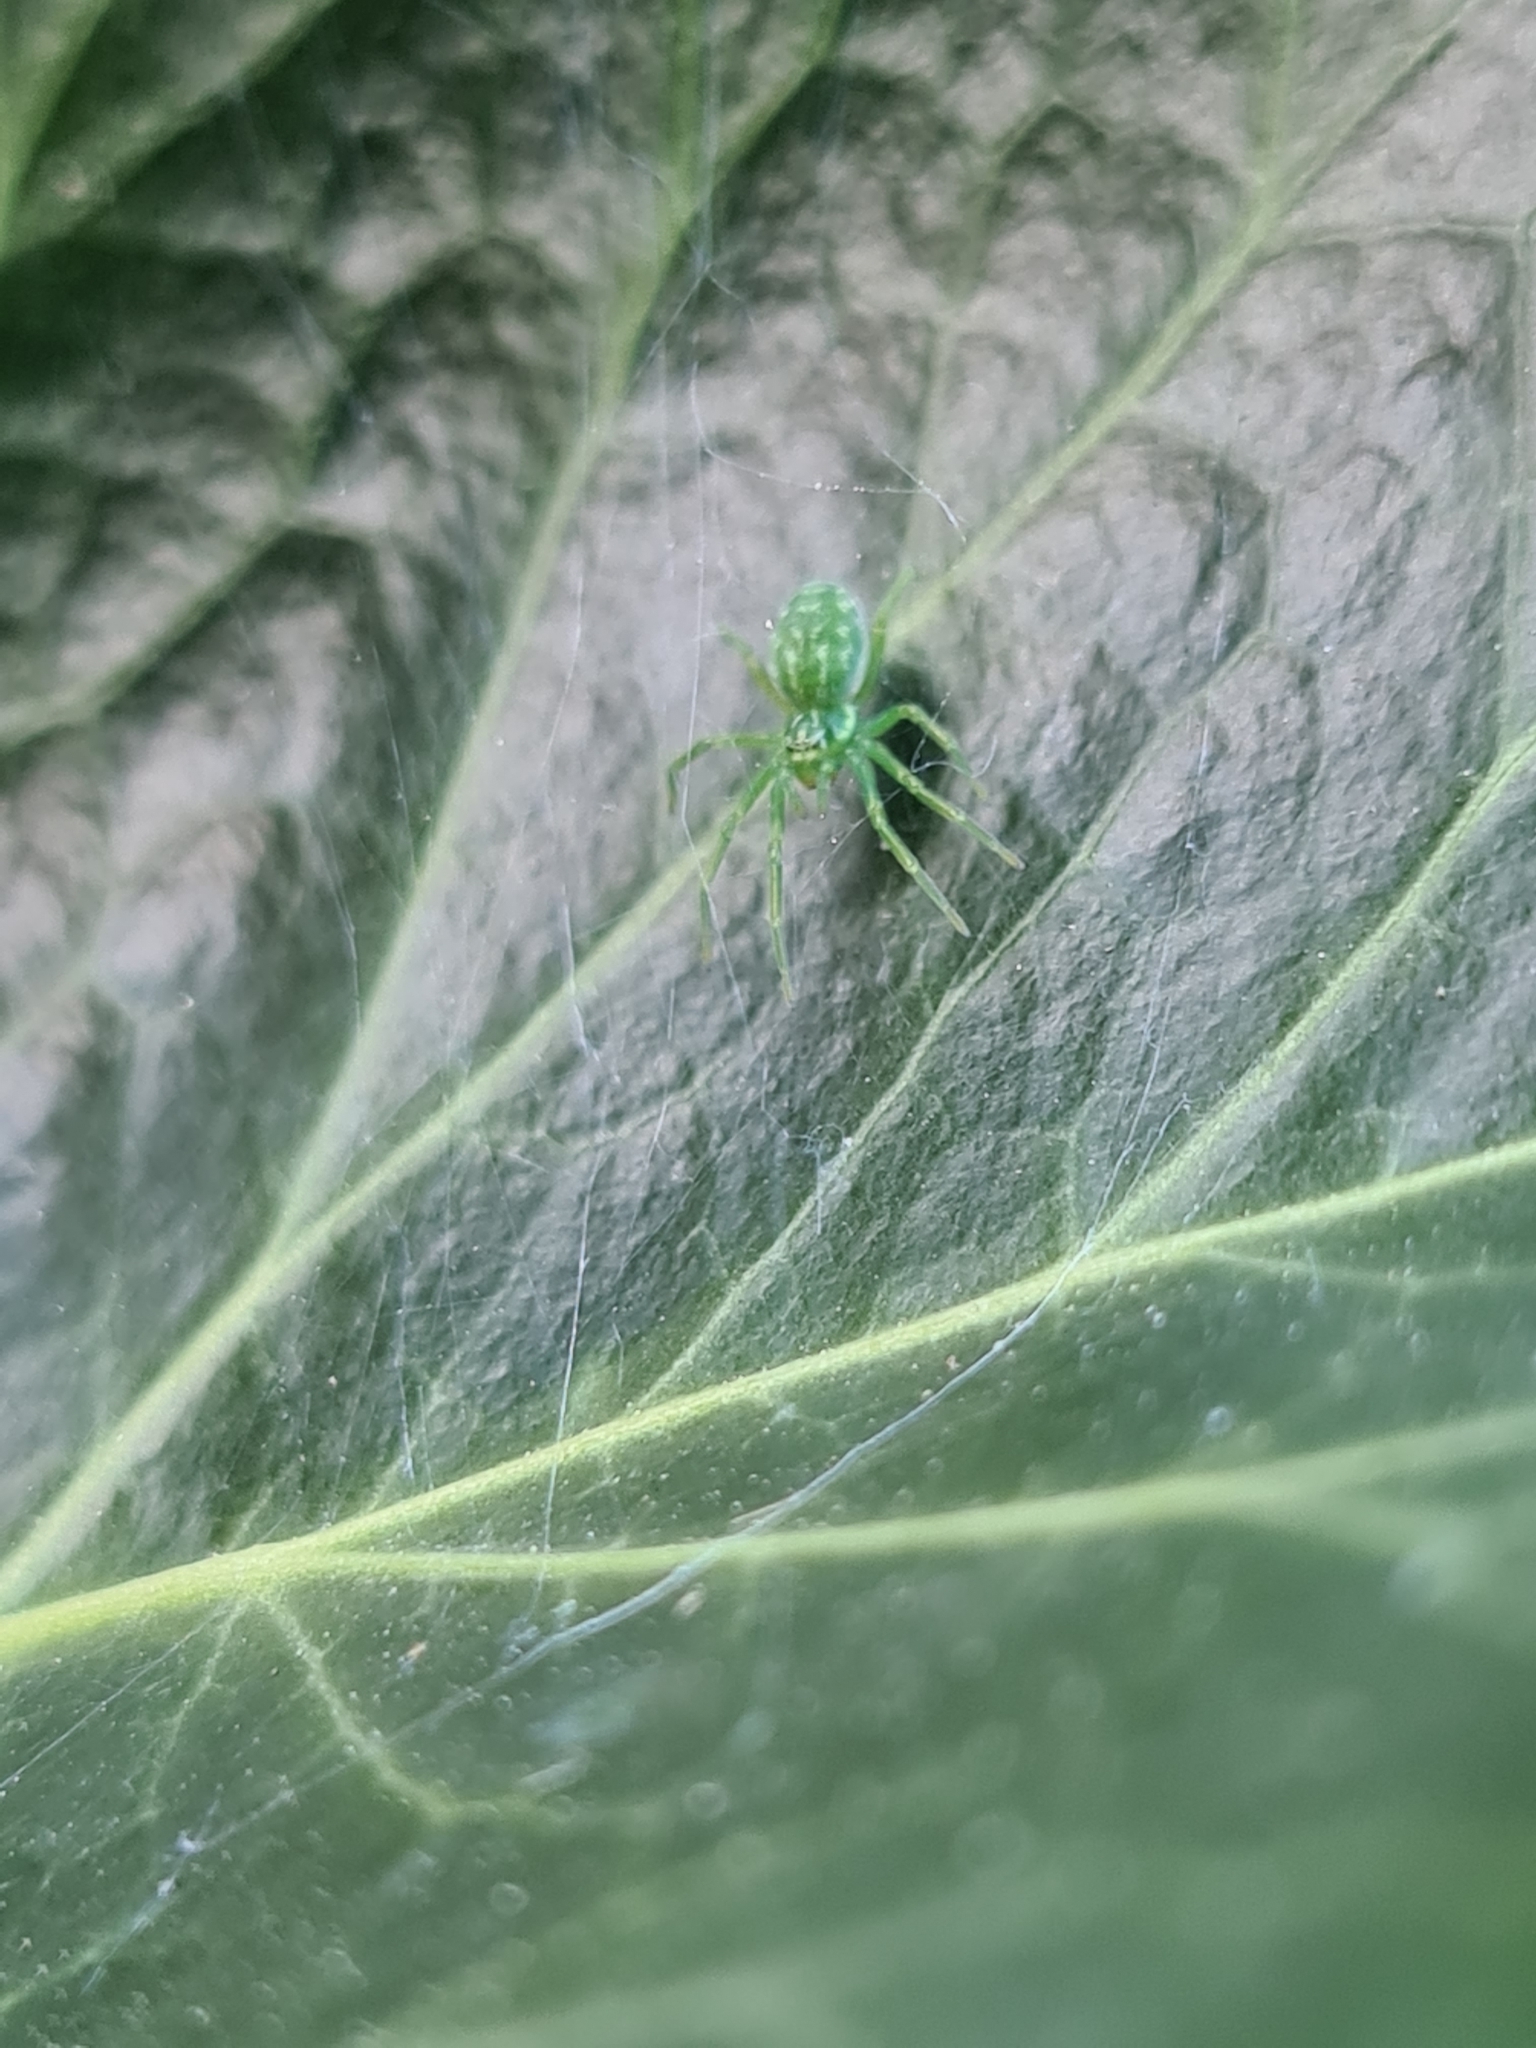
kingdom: Animalia
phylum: Arthropoda
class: Arachnida
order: Araneae
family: Dictynidae
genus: Nigma
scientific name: Nigma walckenaeri
